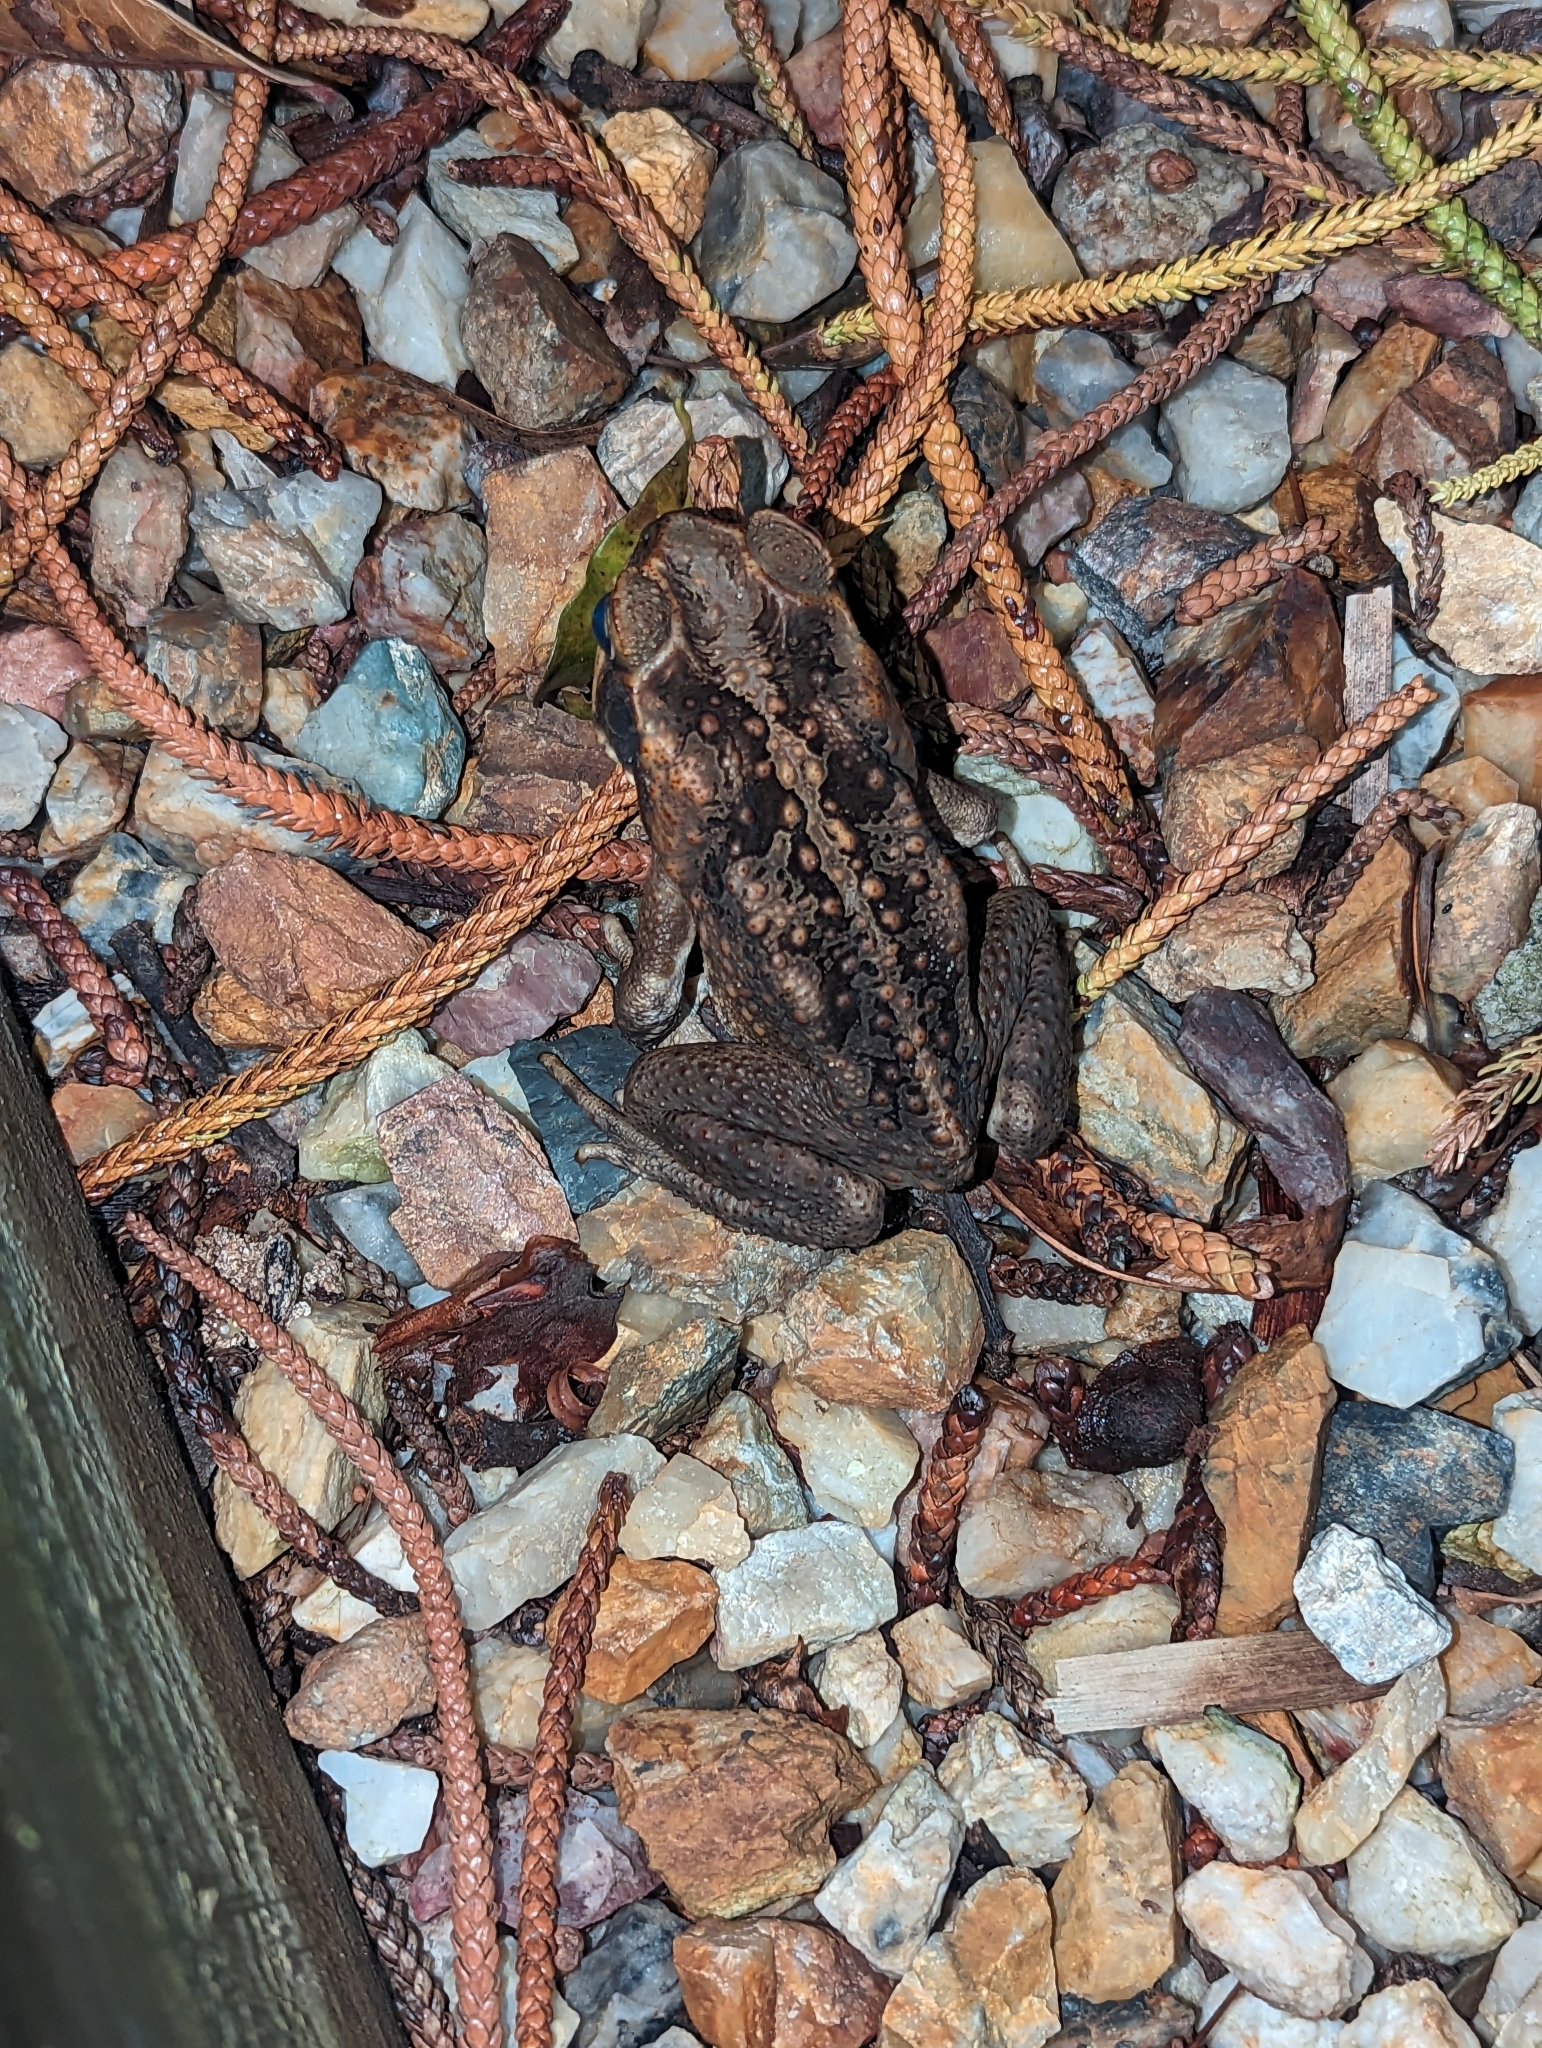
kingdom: Animalia
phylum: Chordata
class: Amphibia
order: Anura
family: Bufonidae
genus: Rhinella
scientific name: Rhinella marina
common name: Cane toad
